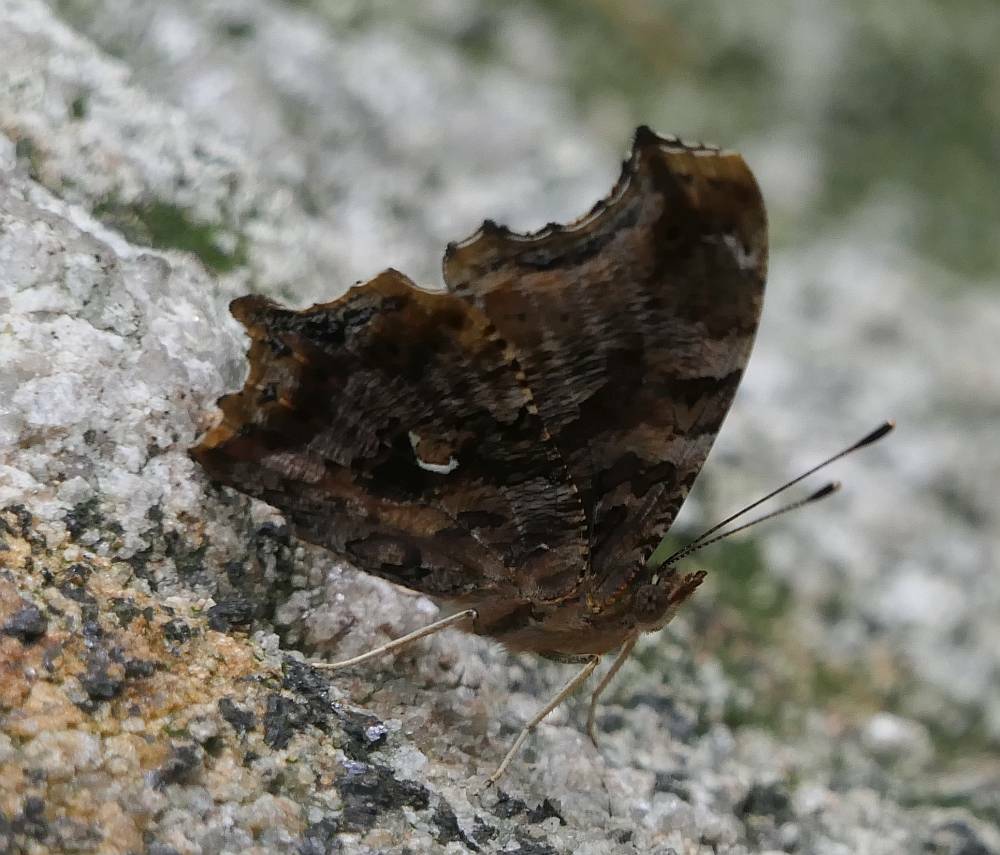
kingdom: Animalia
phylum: Arthropoda
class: Insecta
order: Lepidoptera
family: Nymphalidae
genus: Polygonia
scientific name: Polygonia comma
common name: Eastern comma
